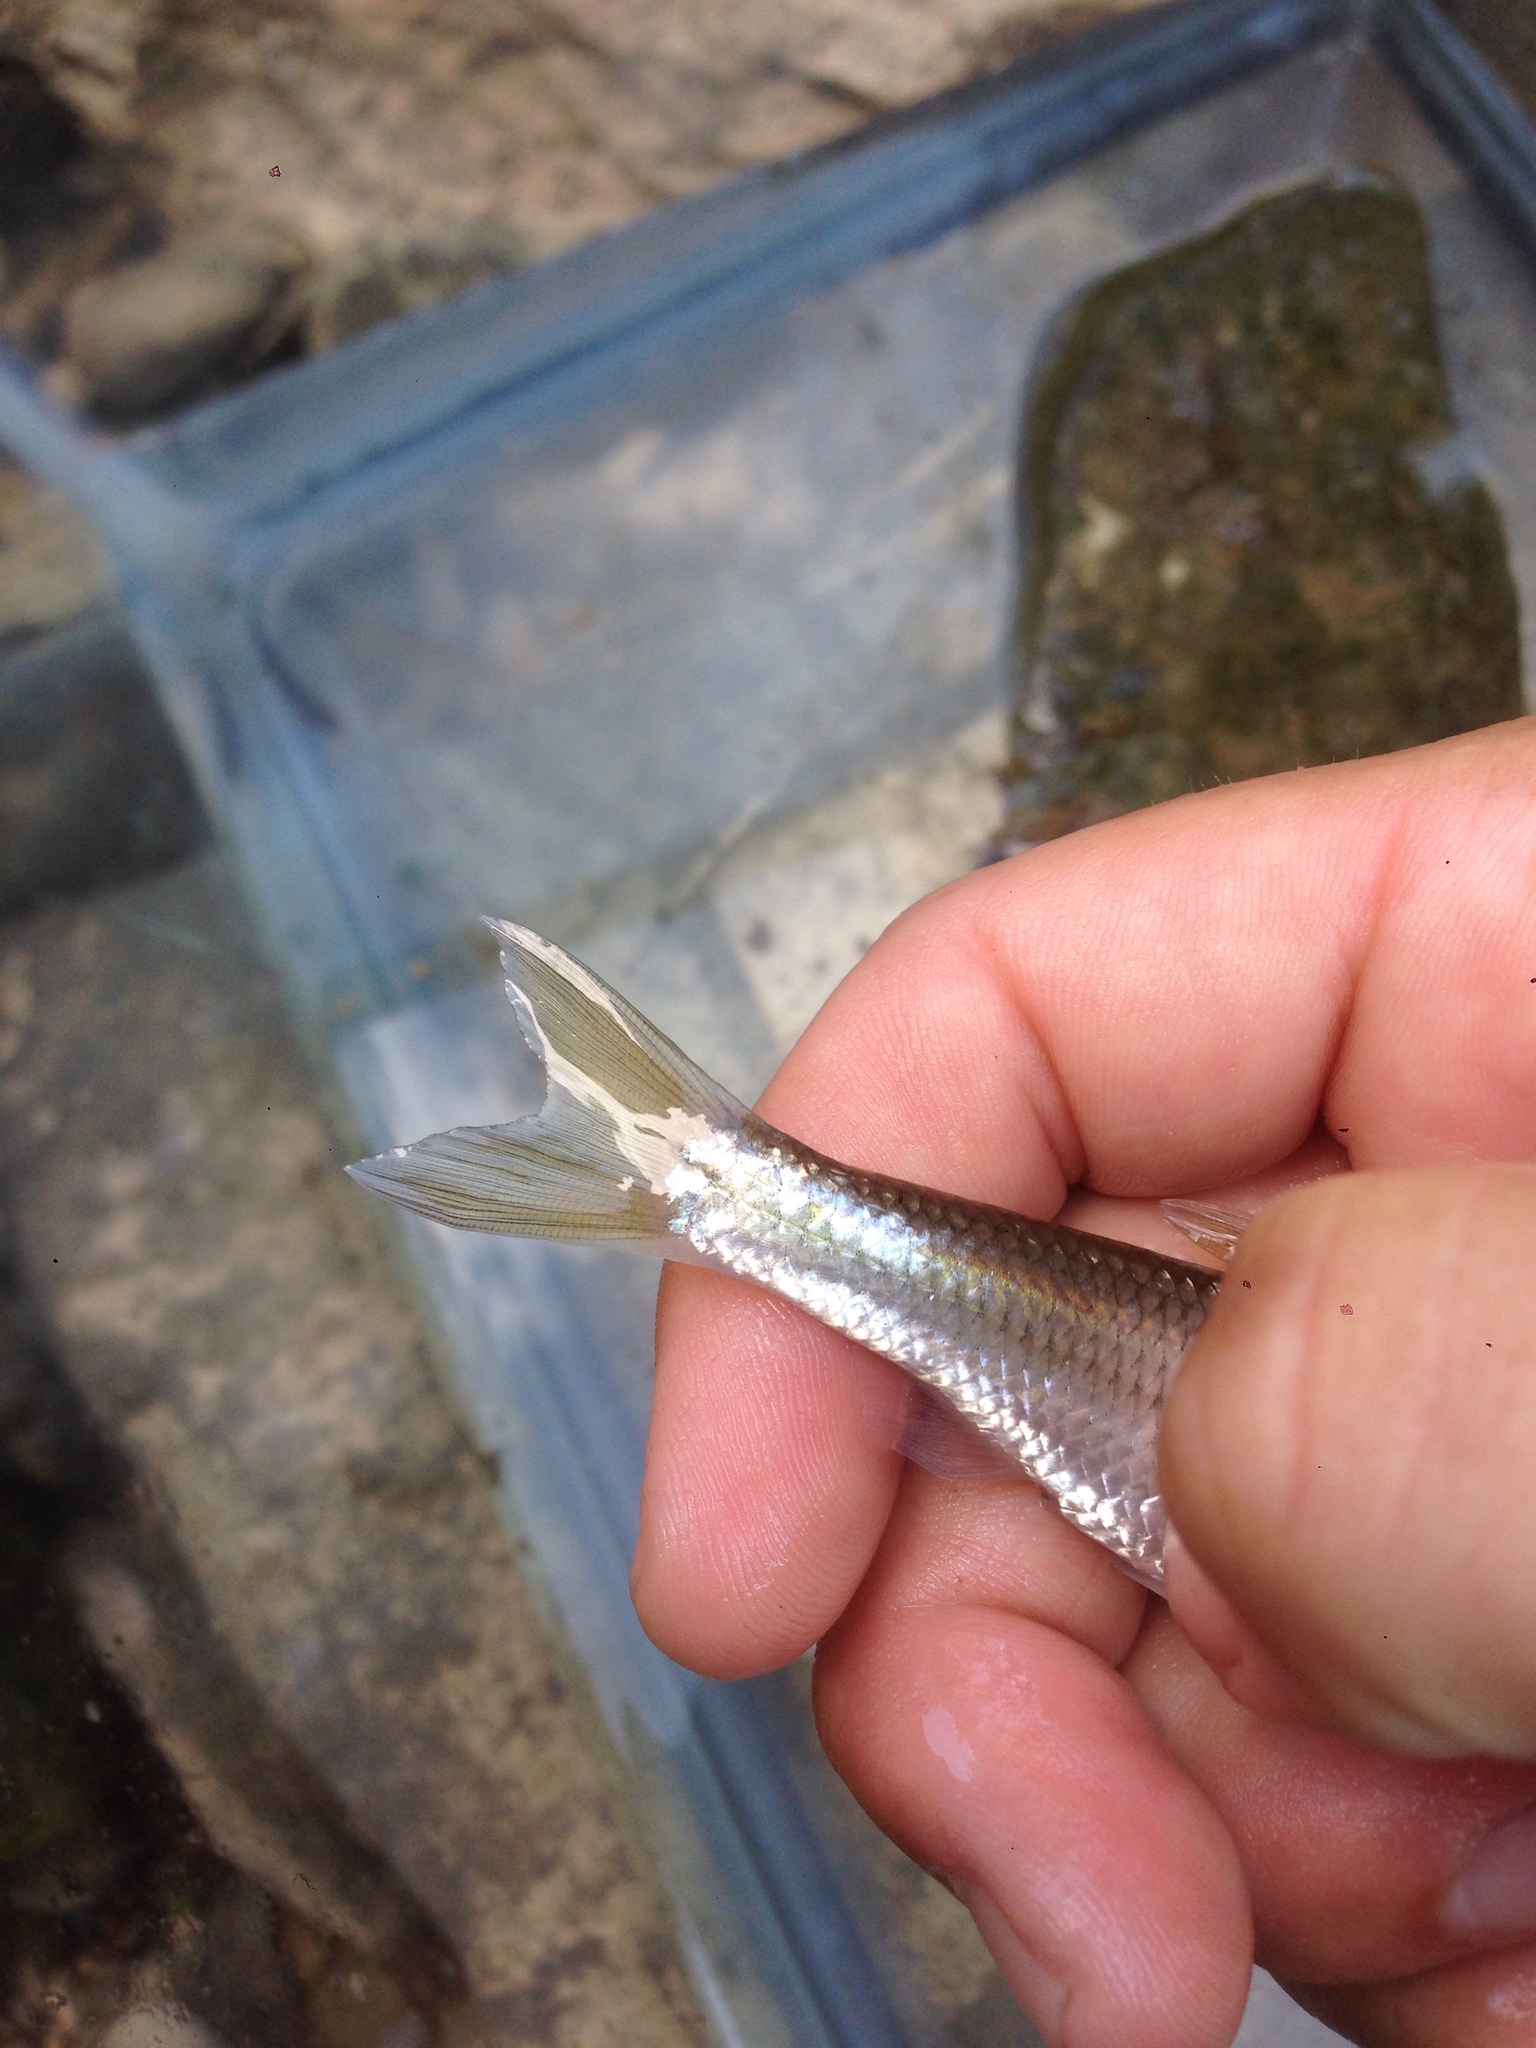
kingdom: Animalia
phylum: Chordata
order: Cypriniformes
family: Cyprinidae
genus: Luxilus
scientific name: Luxilus chrysocephalus
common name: Striped shiner
